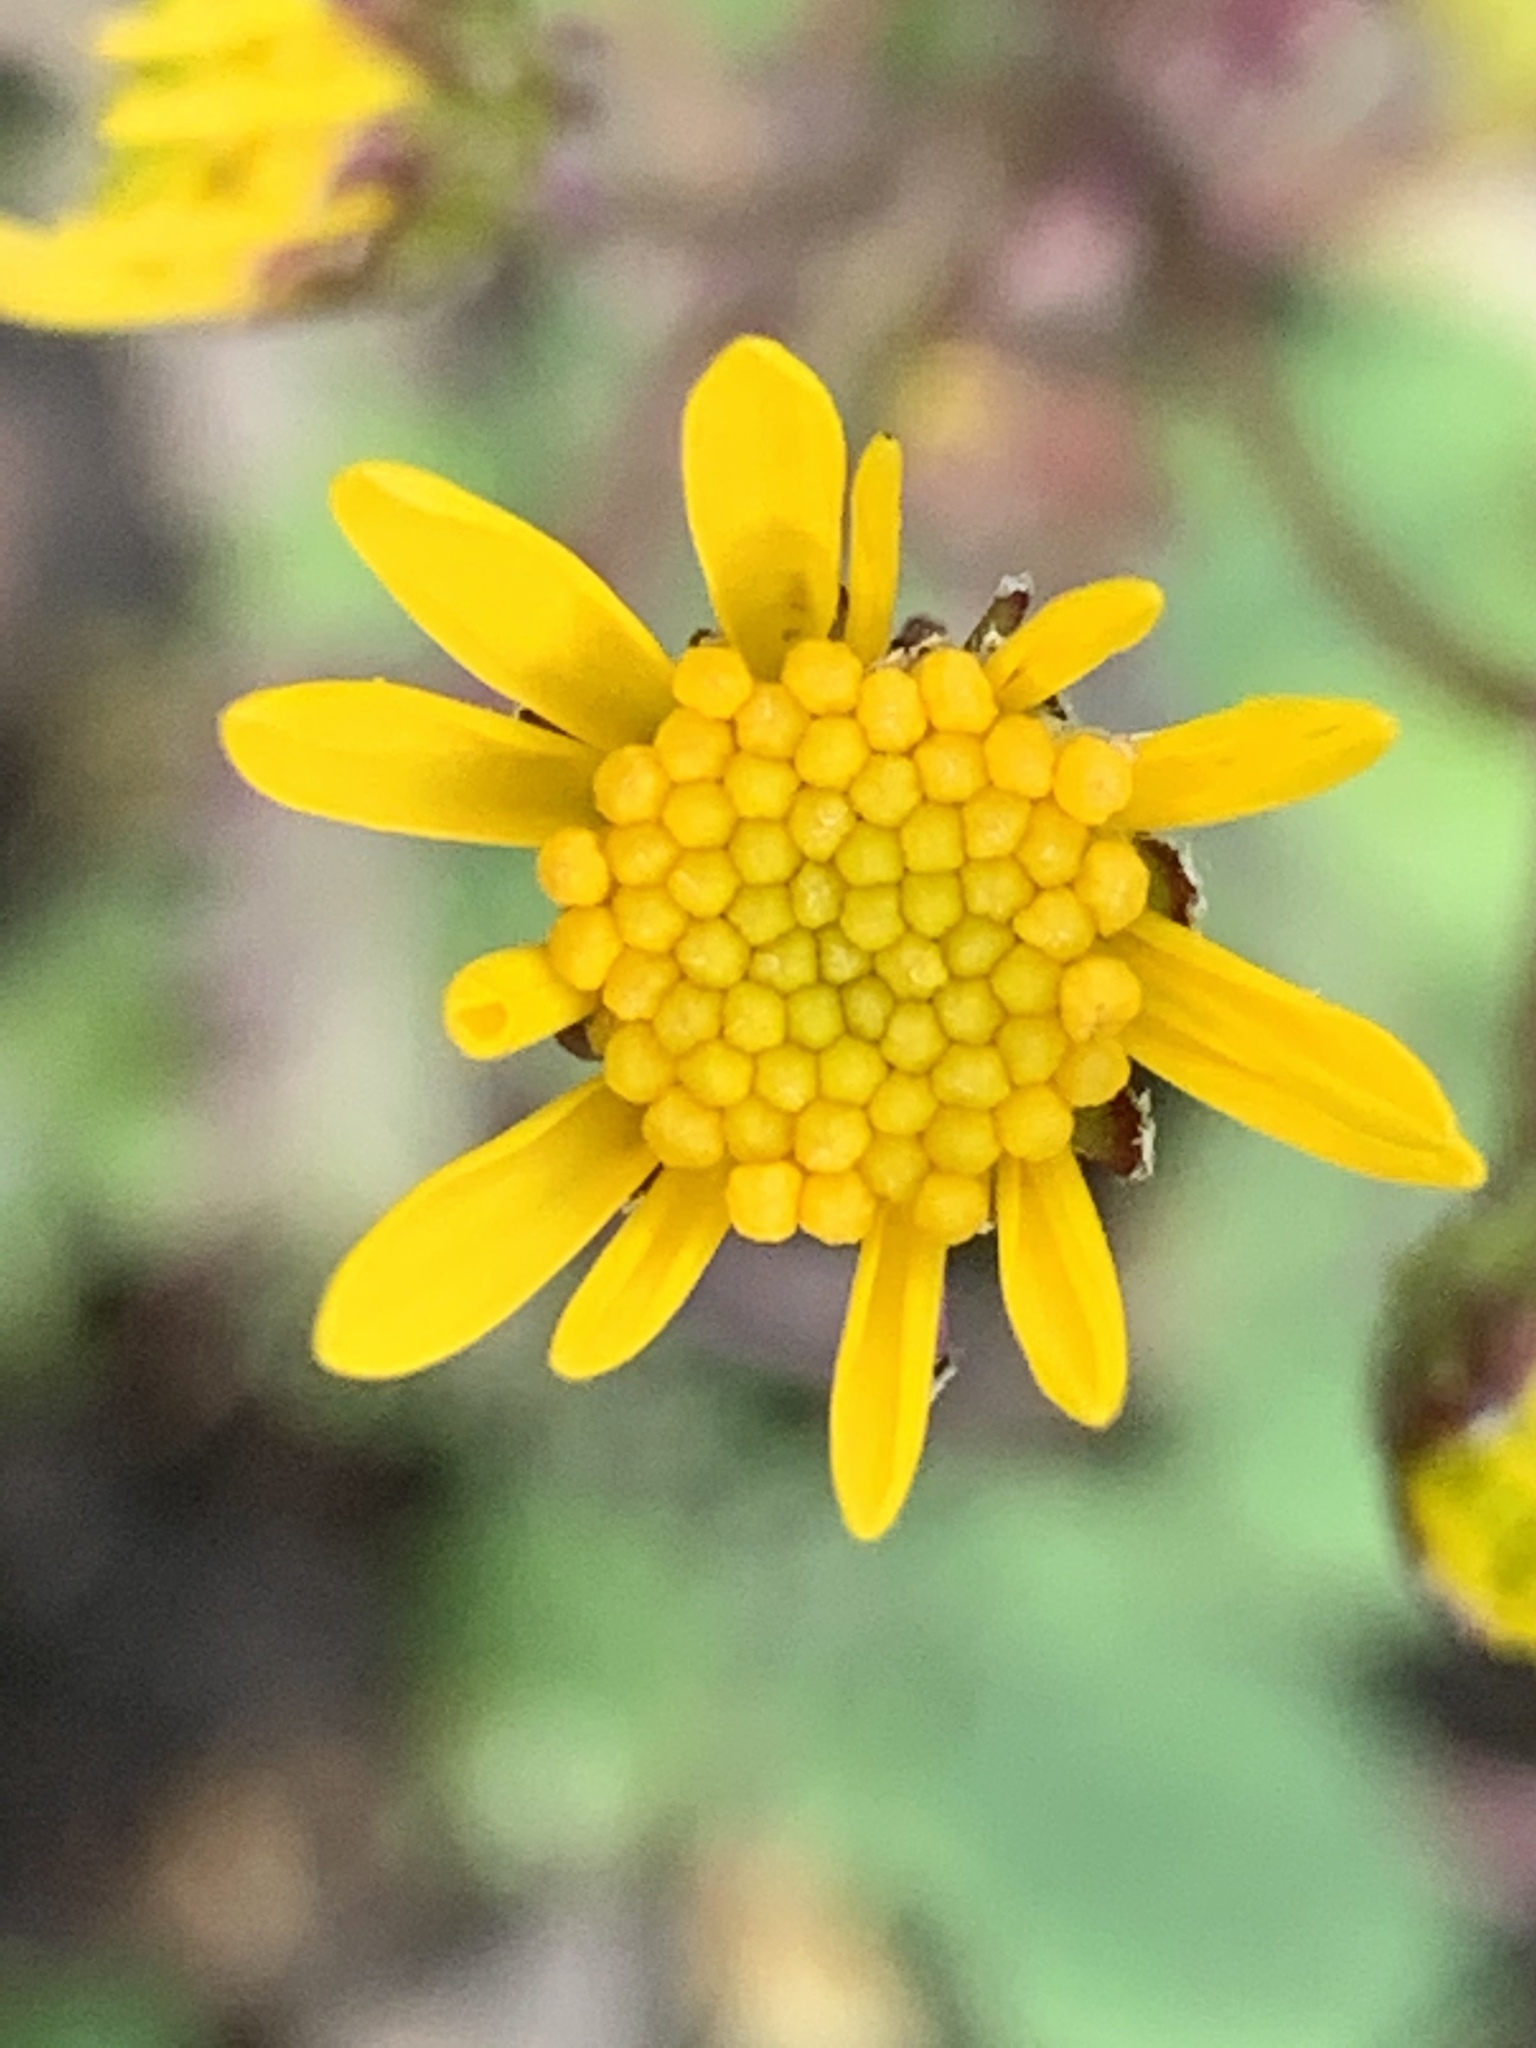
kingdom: Plantae
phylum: Tracheophyta
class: Magnoliopsida
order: Asterales
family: Asteraceae
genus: Packera
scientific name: Packera aurea
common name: Golden groundsel
